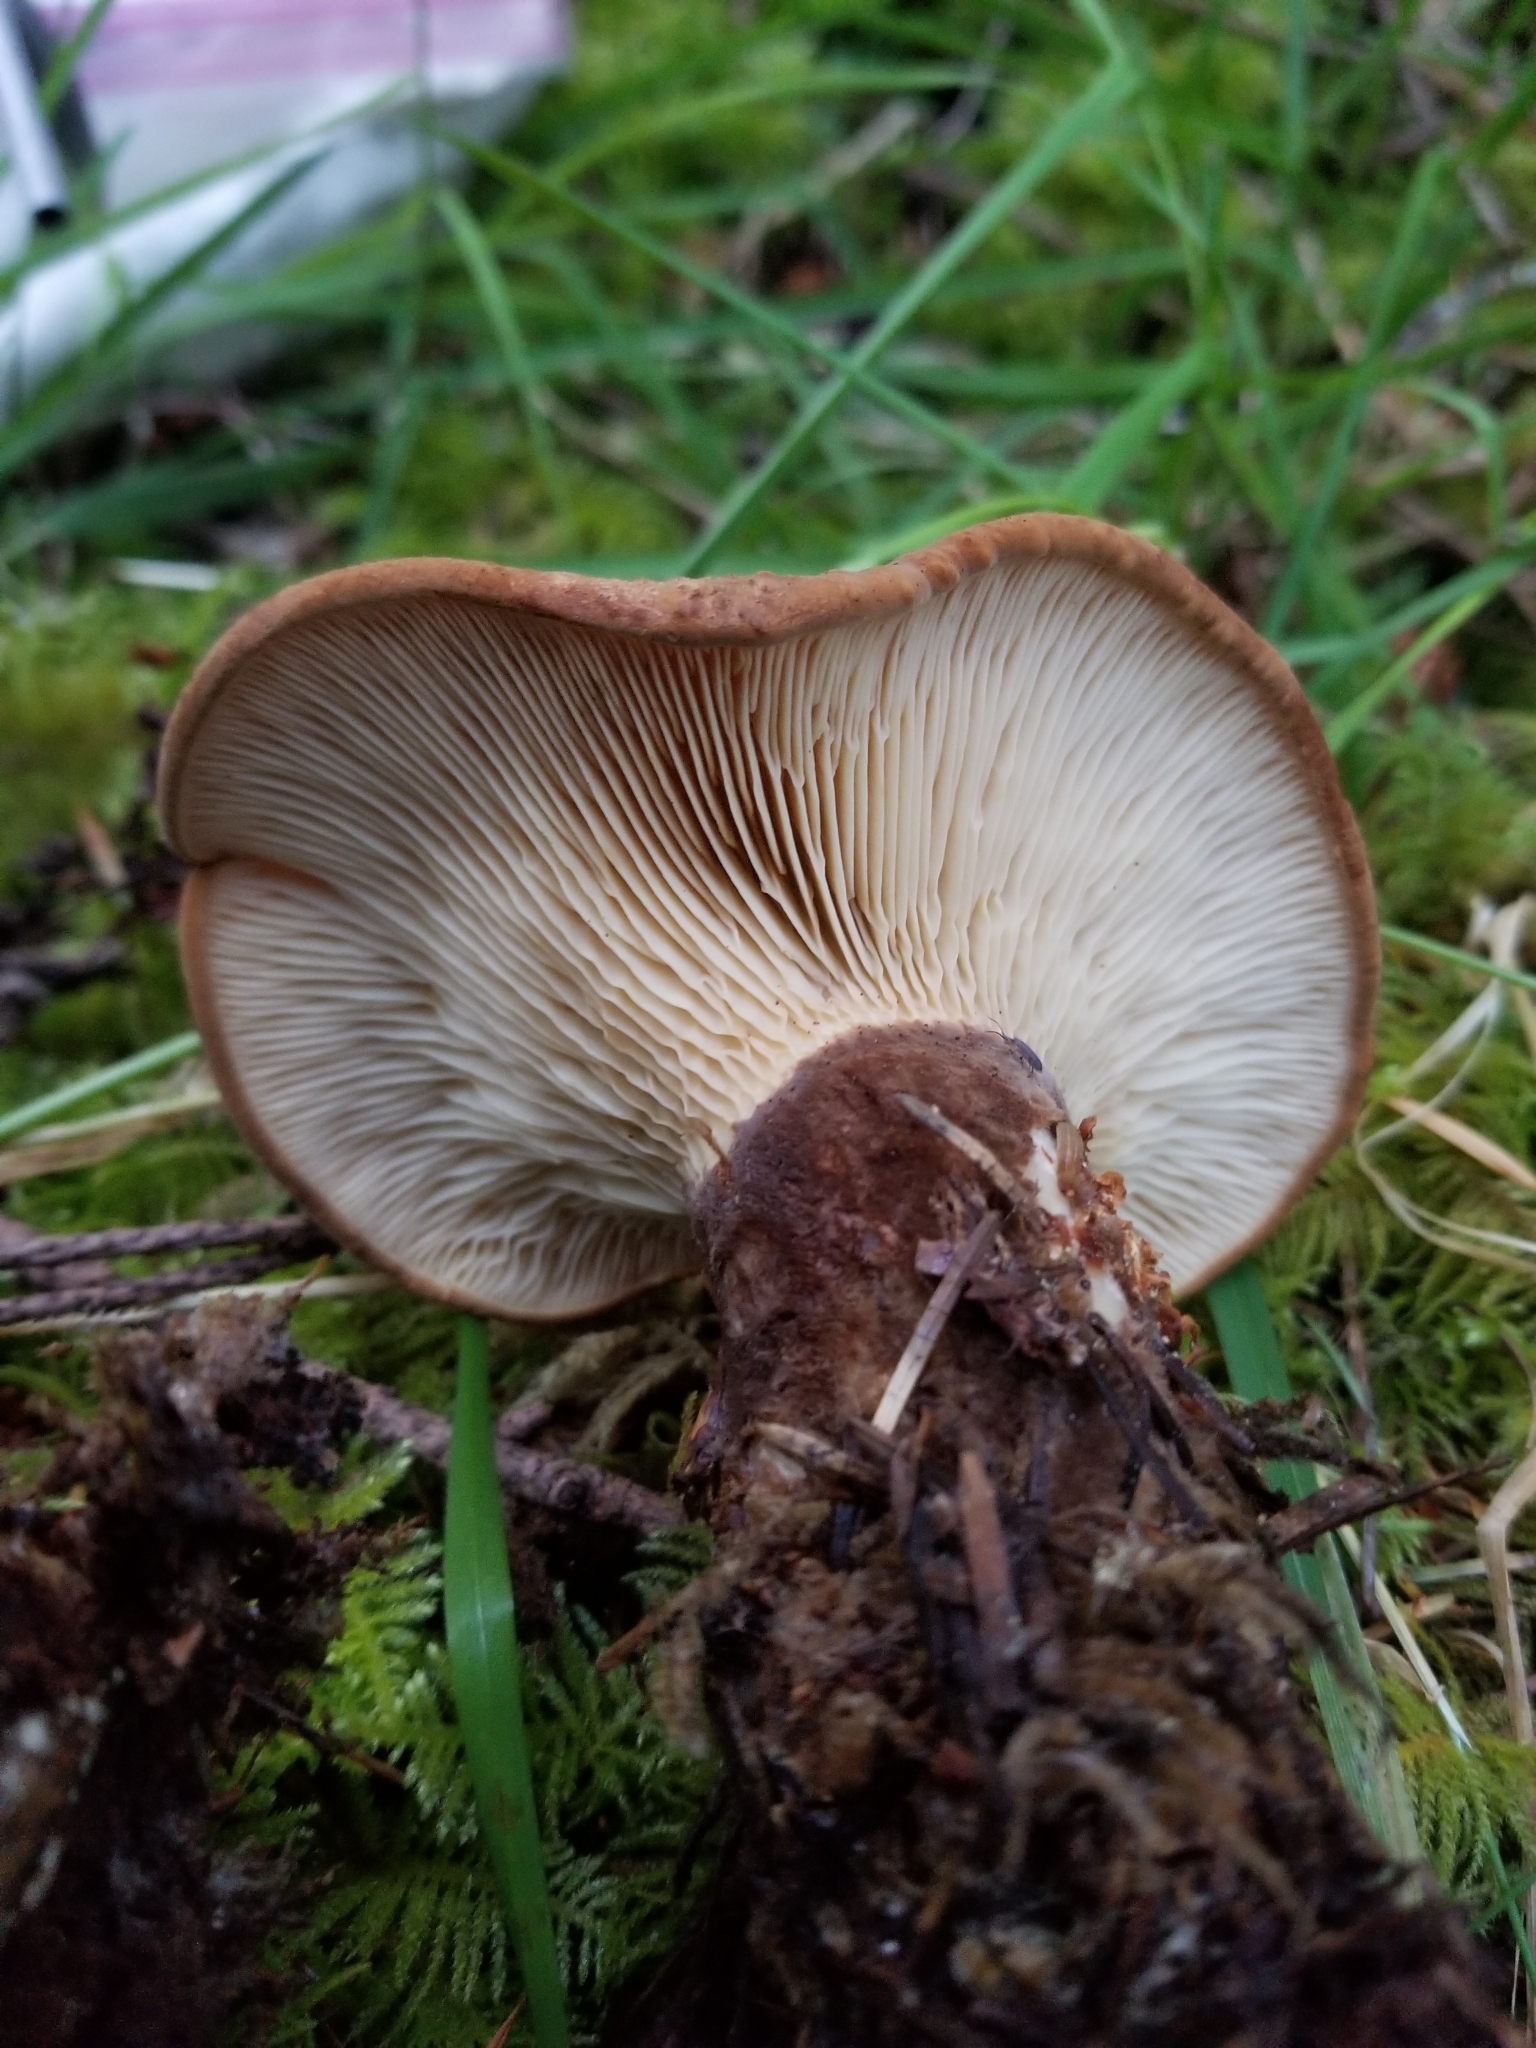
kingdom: Fungi
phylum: Basidiomycota
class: Agaricomycetes
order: Boletales
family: Tapinellaceae
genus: Tapinella
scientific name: Tapinella atrotomentosa
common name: Velvet rollrim
